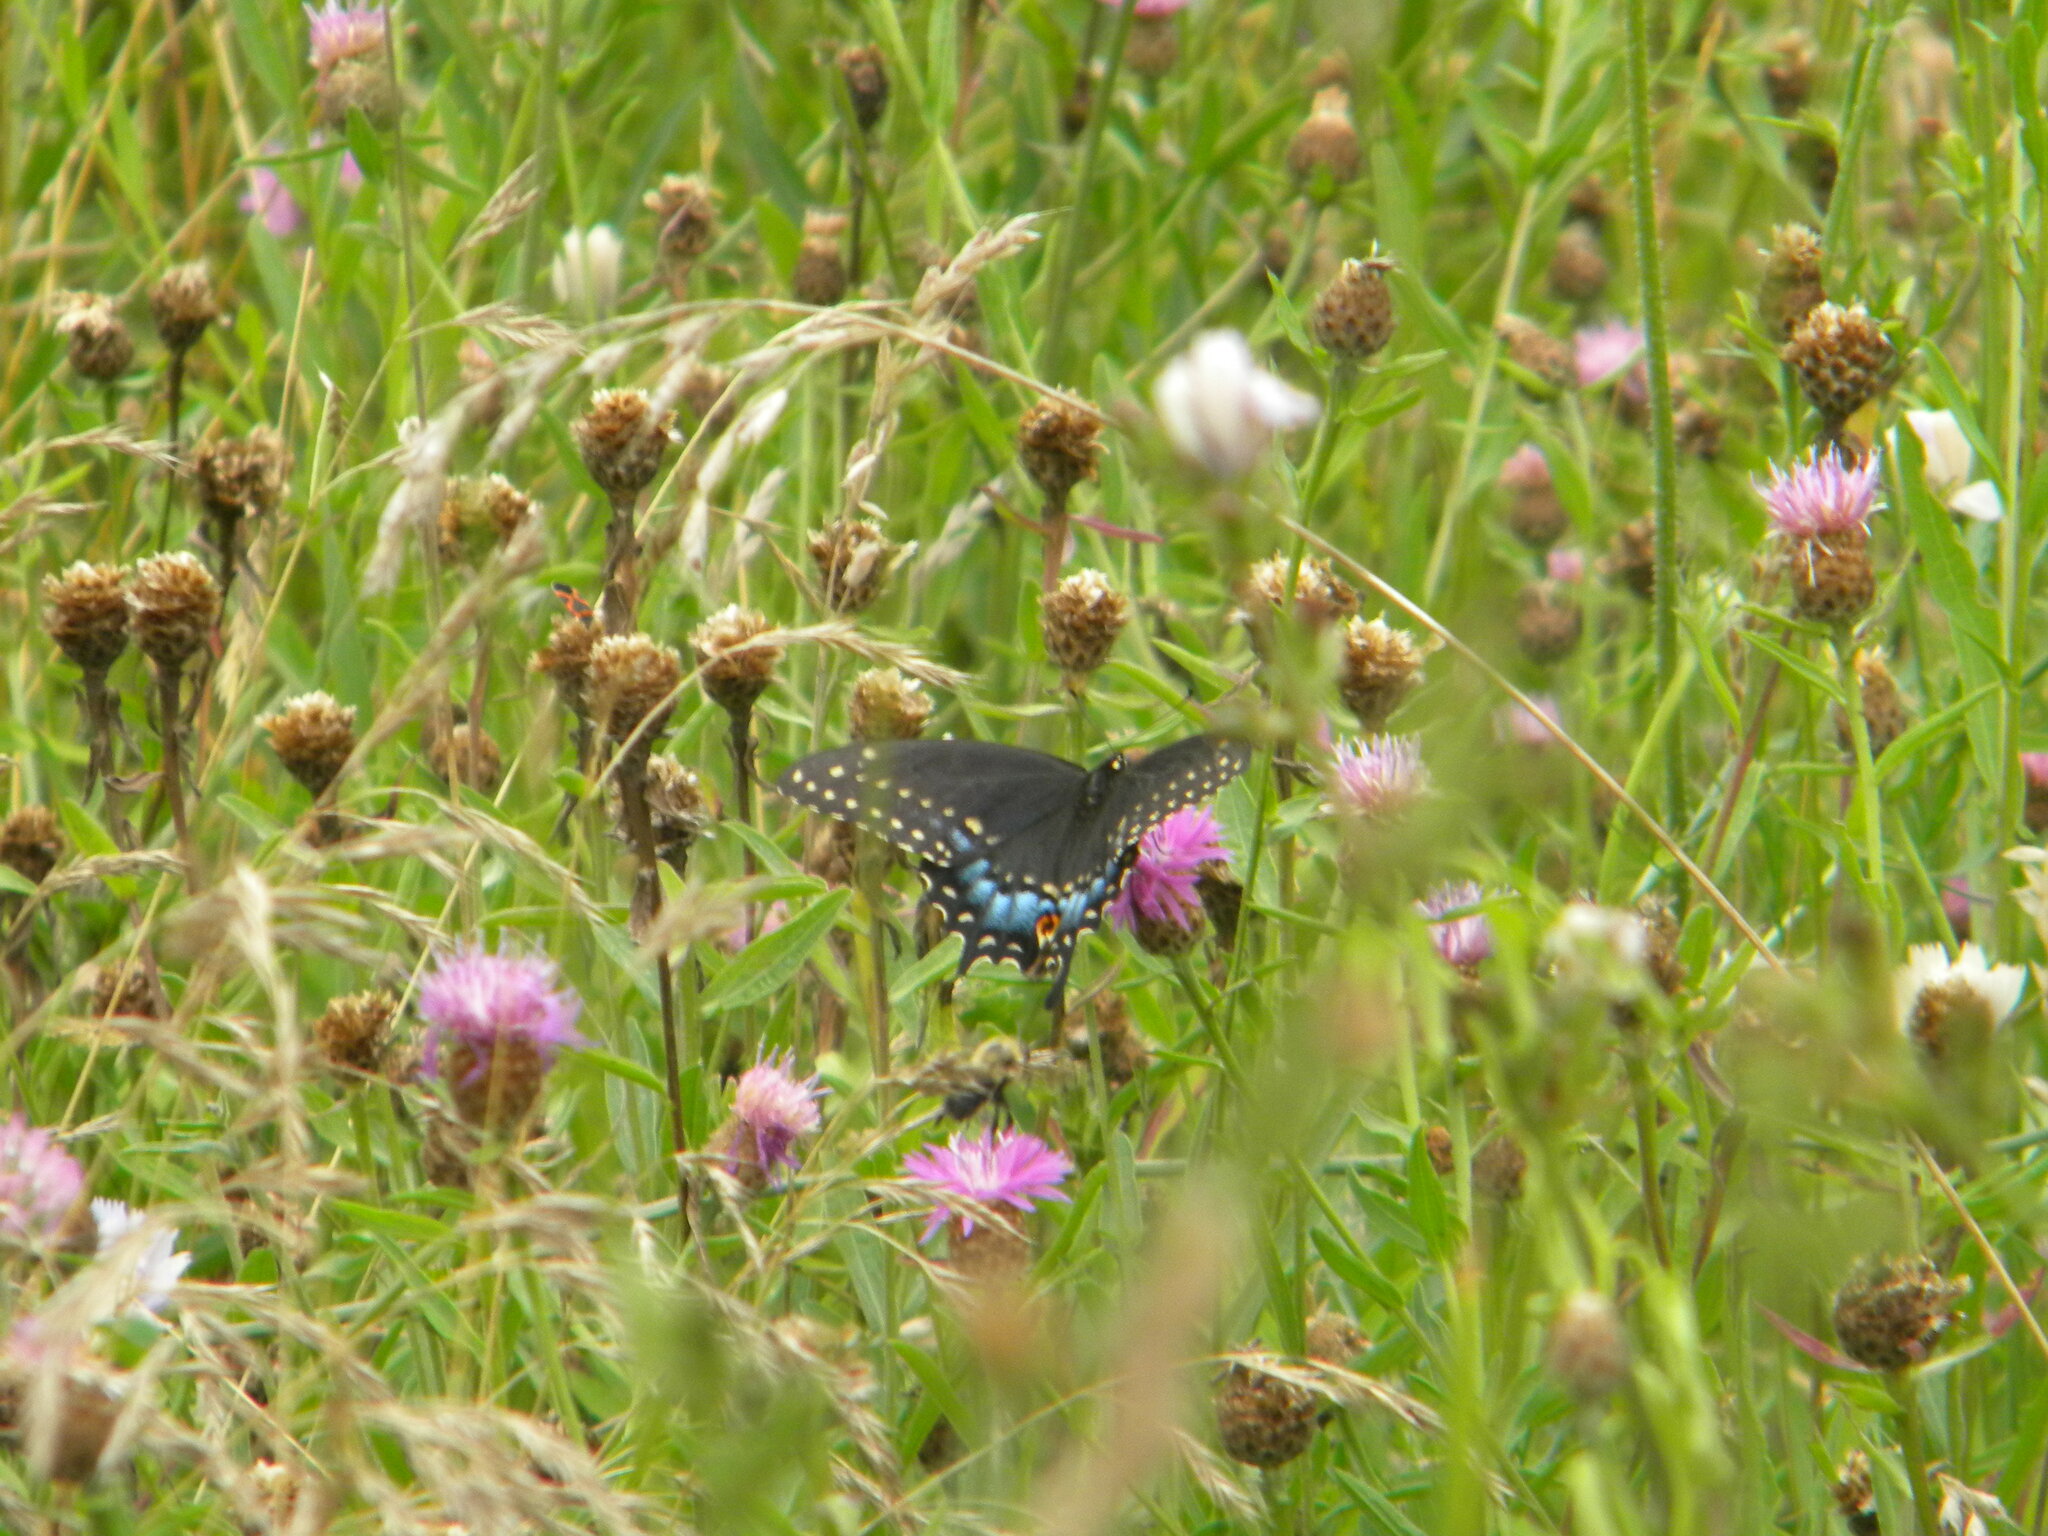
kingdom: Animalia
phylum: Arthropoda
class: Insecta
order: Lepidoptera
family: Papilionidae
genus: Papilio
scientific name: Papilio polyxenes
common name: Black swallowtail
